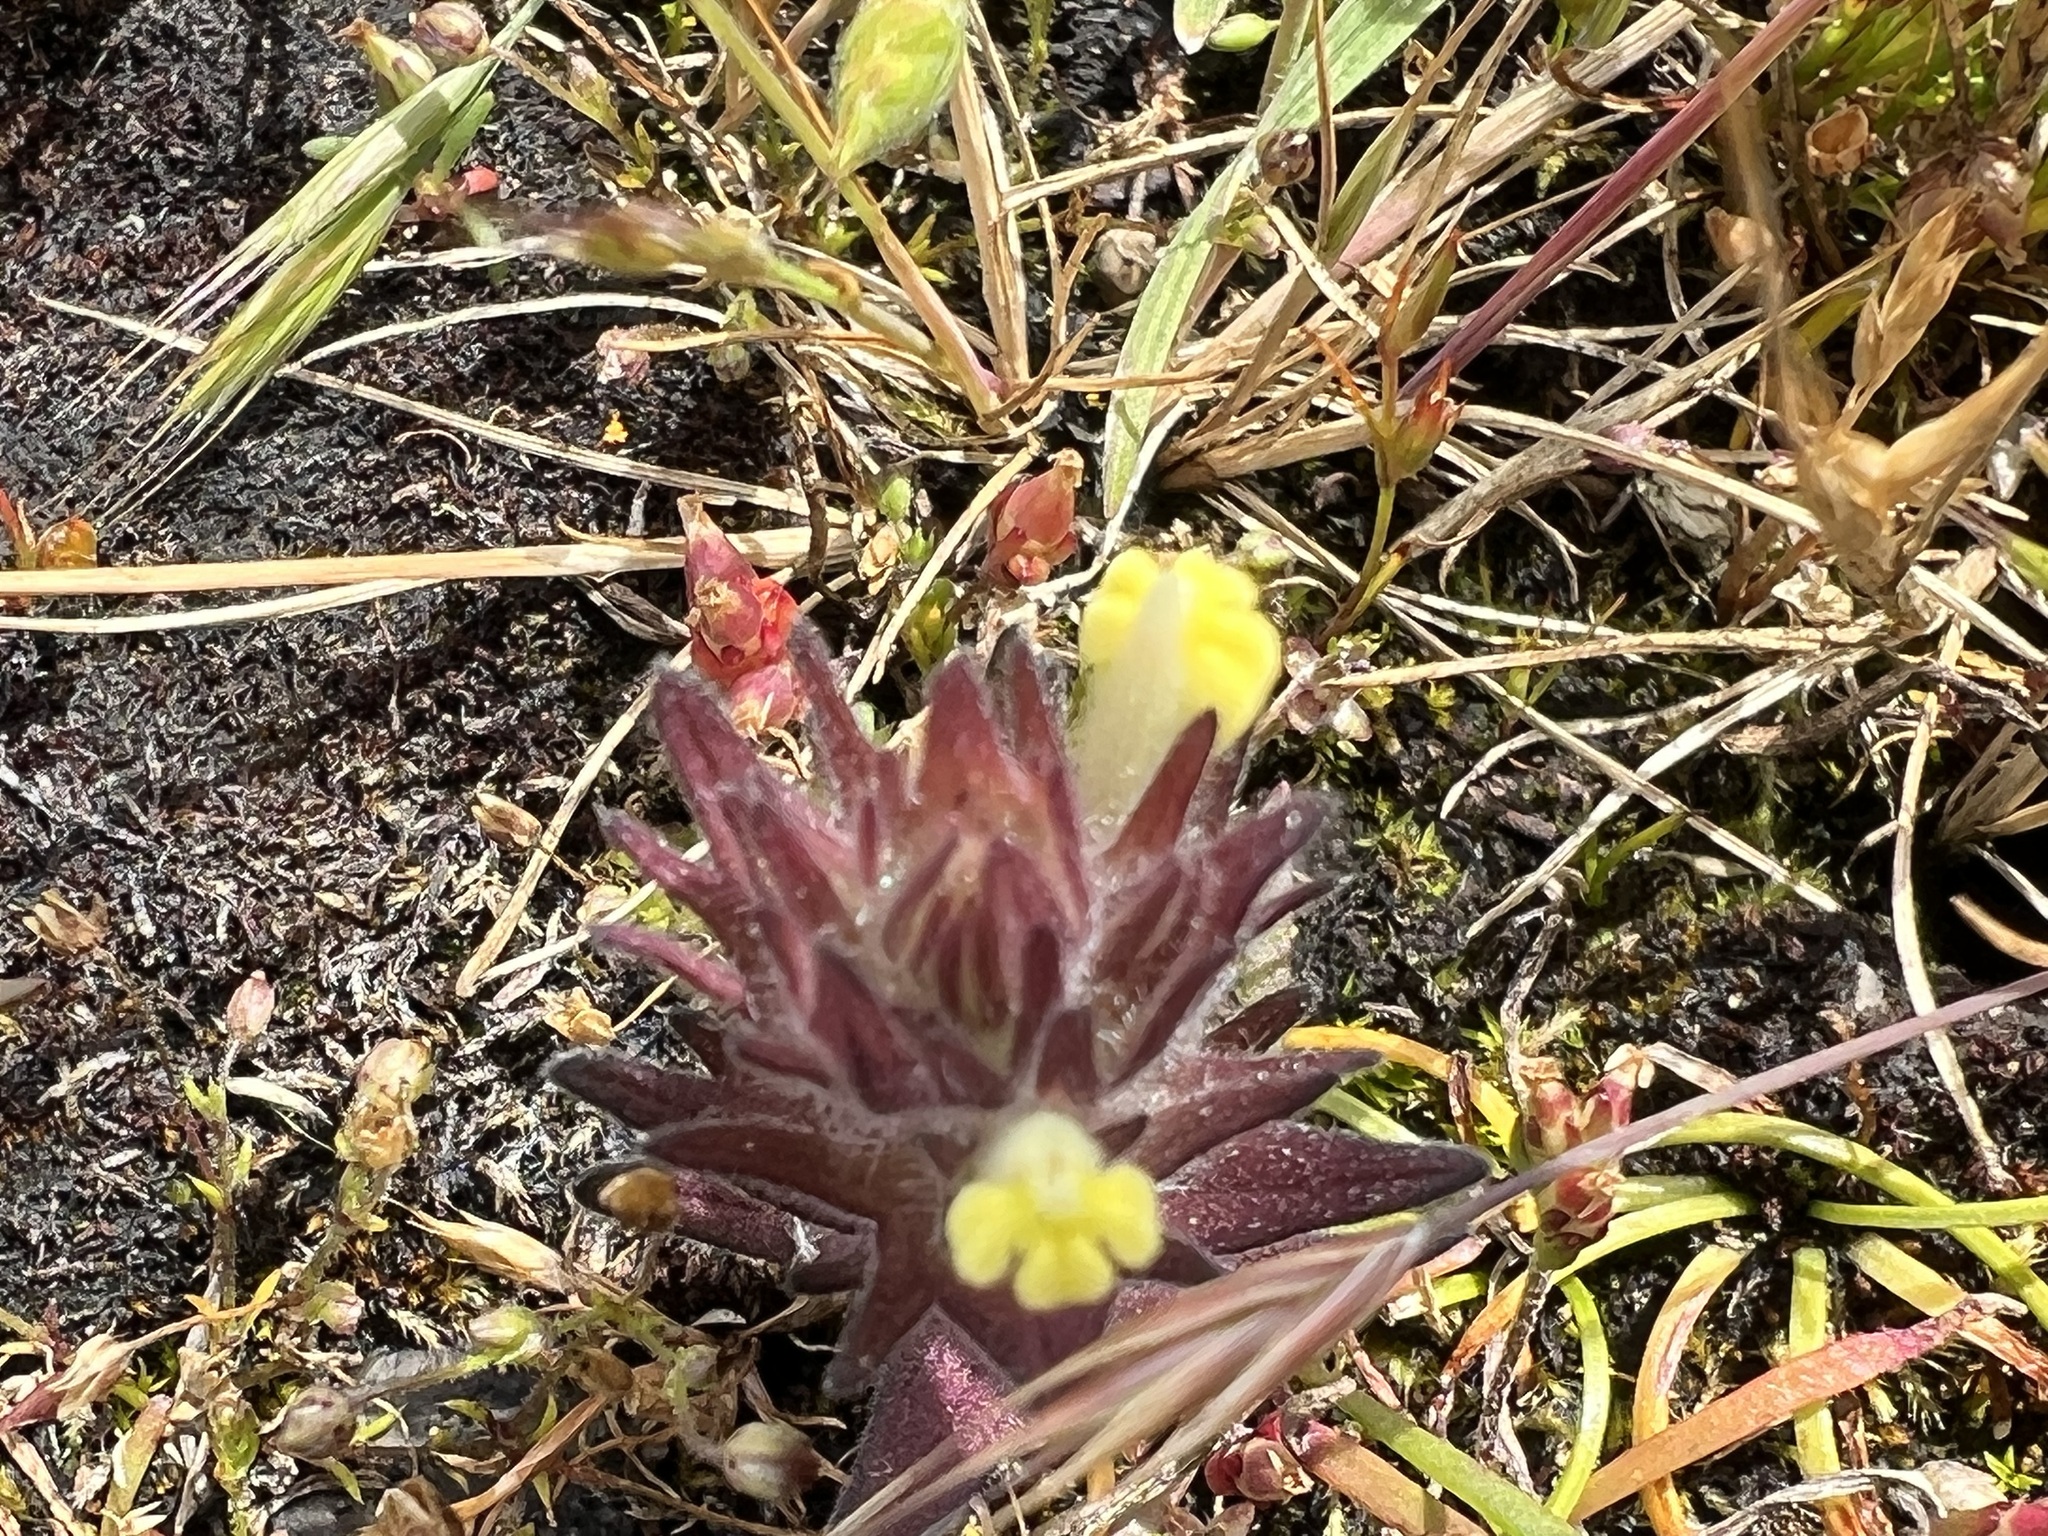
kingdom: Plantae
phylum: Tracheophyta
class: Magnoliopsida
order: Lamiales
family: Orobanchaceae
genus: Castilleja
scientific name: Castilleja victoriae
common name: Victoria paintbrush
